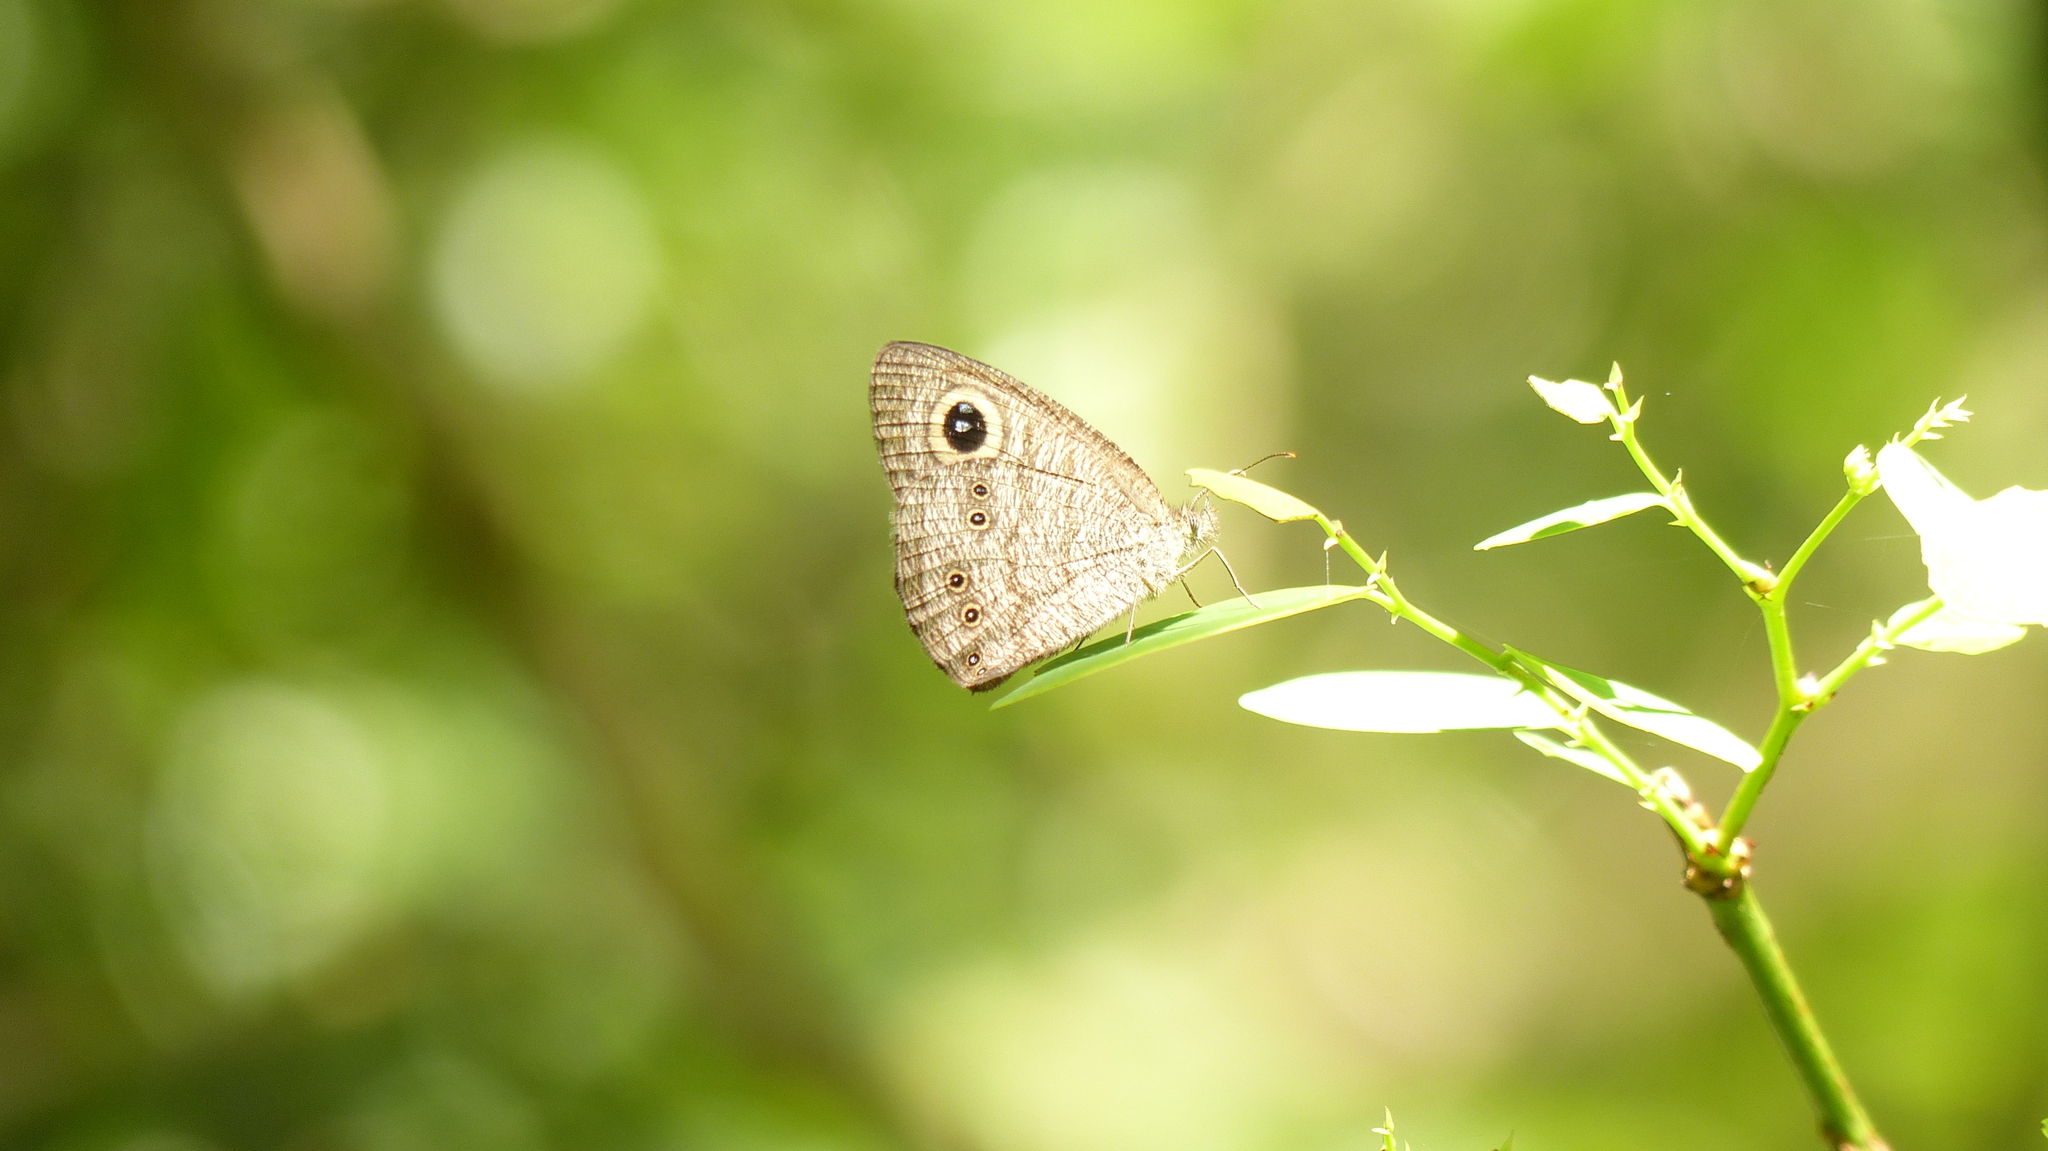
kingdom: Animalia
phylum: Arthropoda
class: Insecta
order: Lepidoptera
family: Nymphalidae
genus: Ypthima
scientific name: Ypthima baldus
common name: Common five-ring
